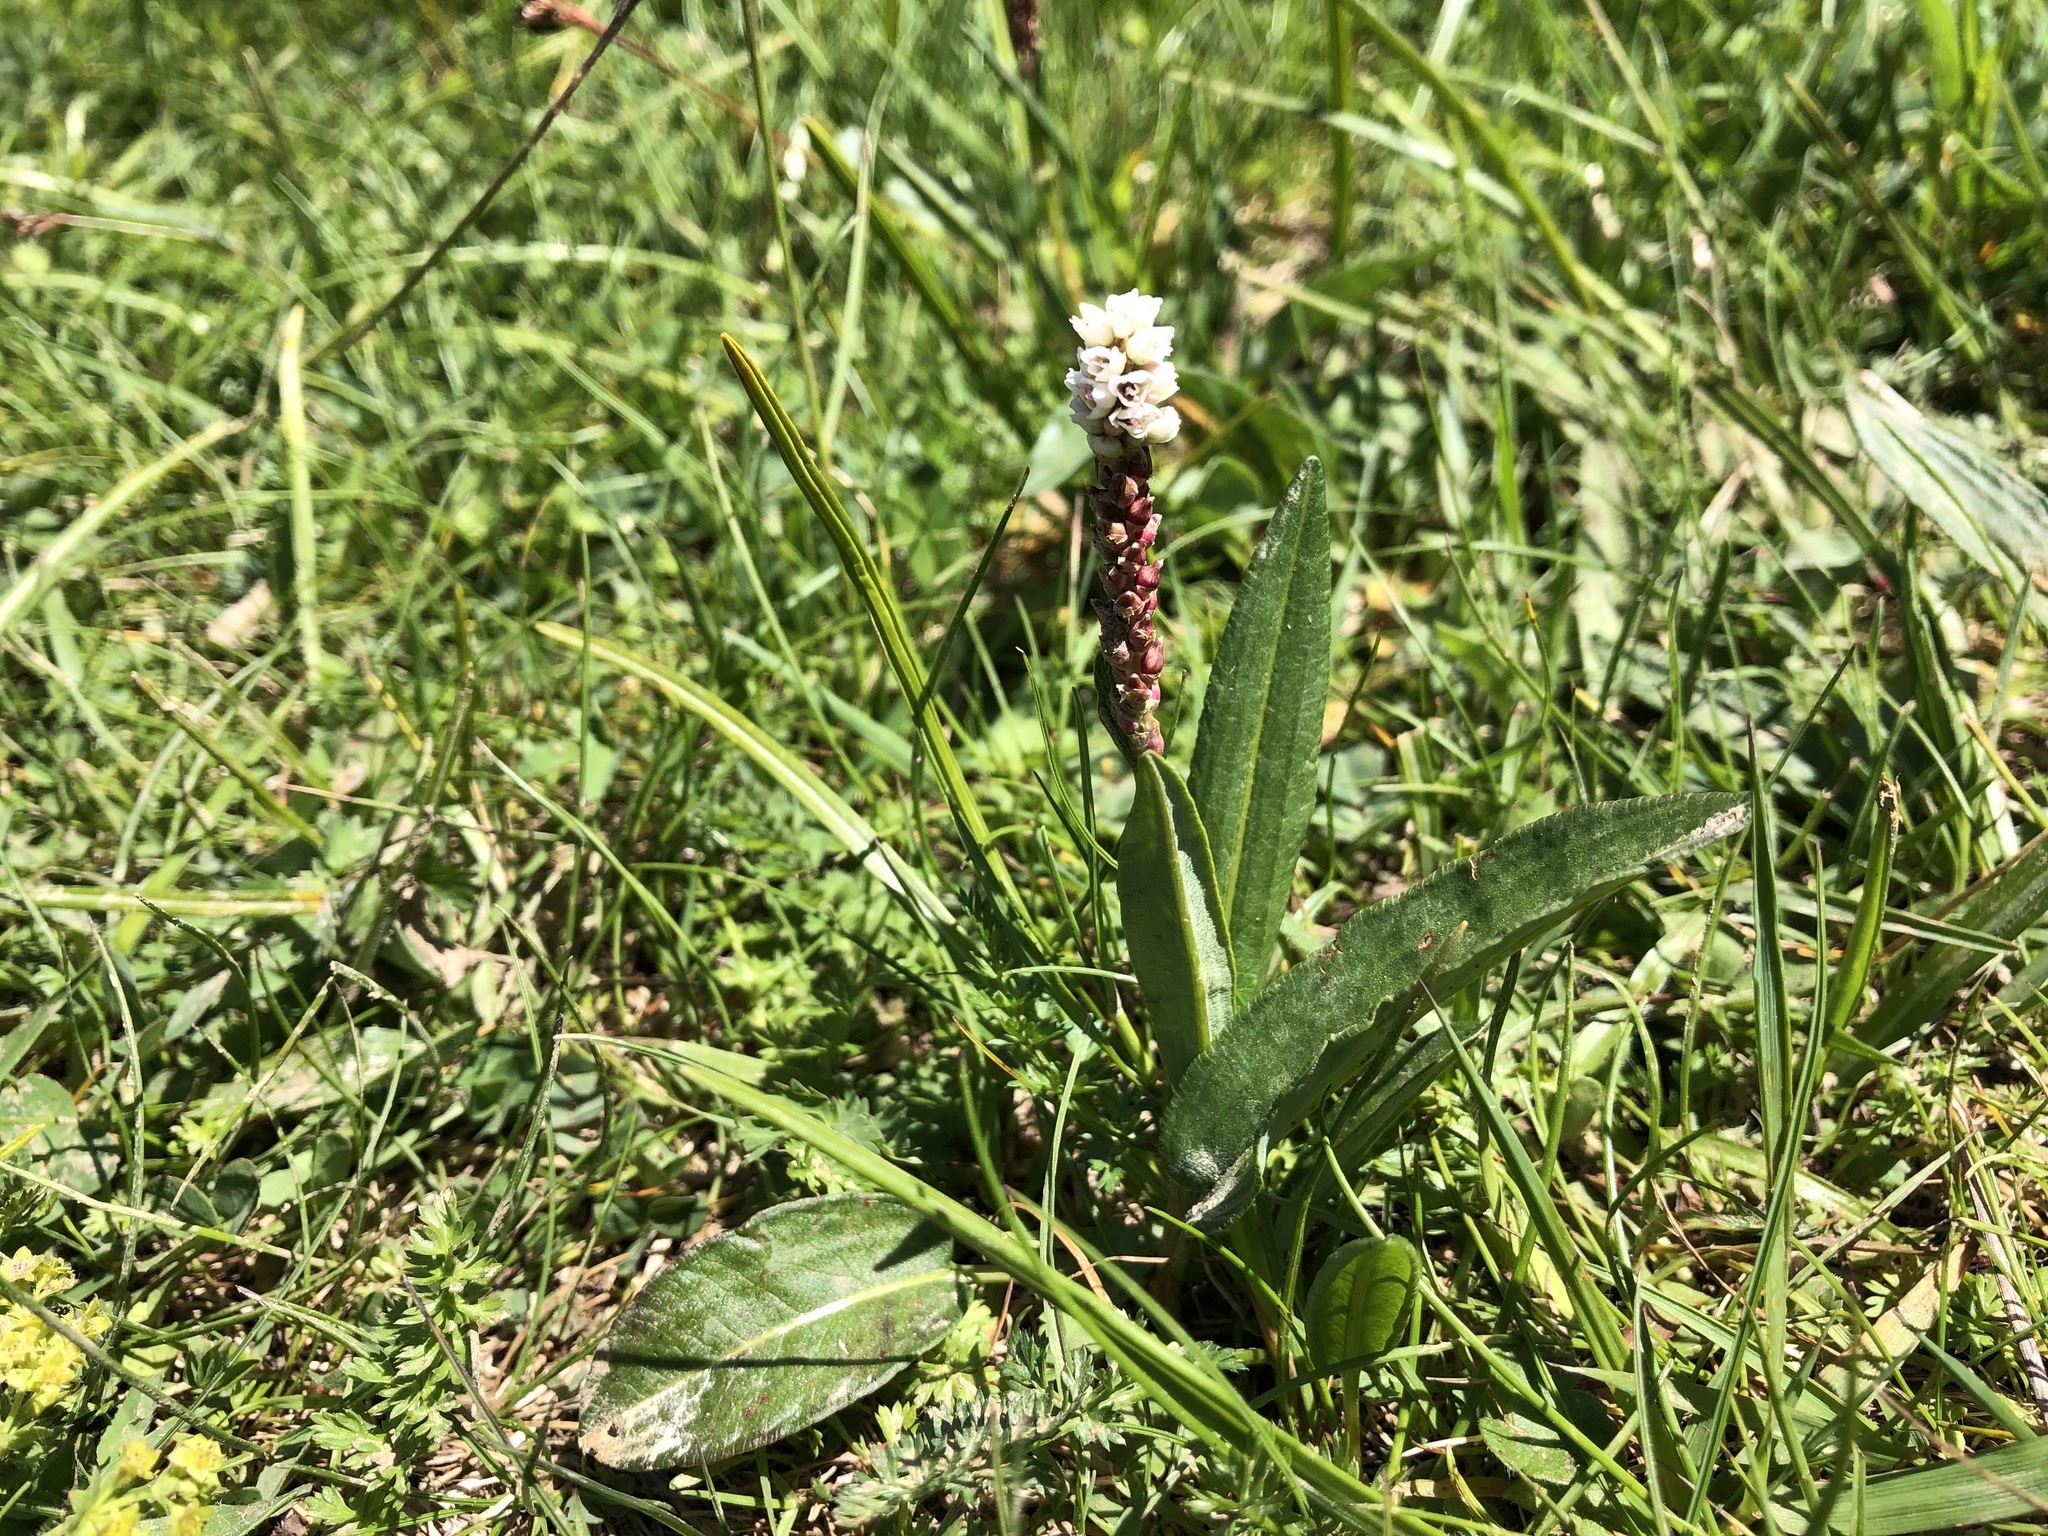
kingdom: Plantae
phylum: Tracheophyta
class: Magnoliopsida
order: Caryophyllales
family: Polygonaceae
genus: Bistorta
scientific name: Bistorta vivipara
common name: Alpine bistort
